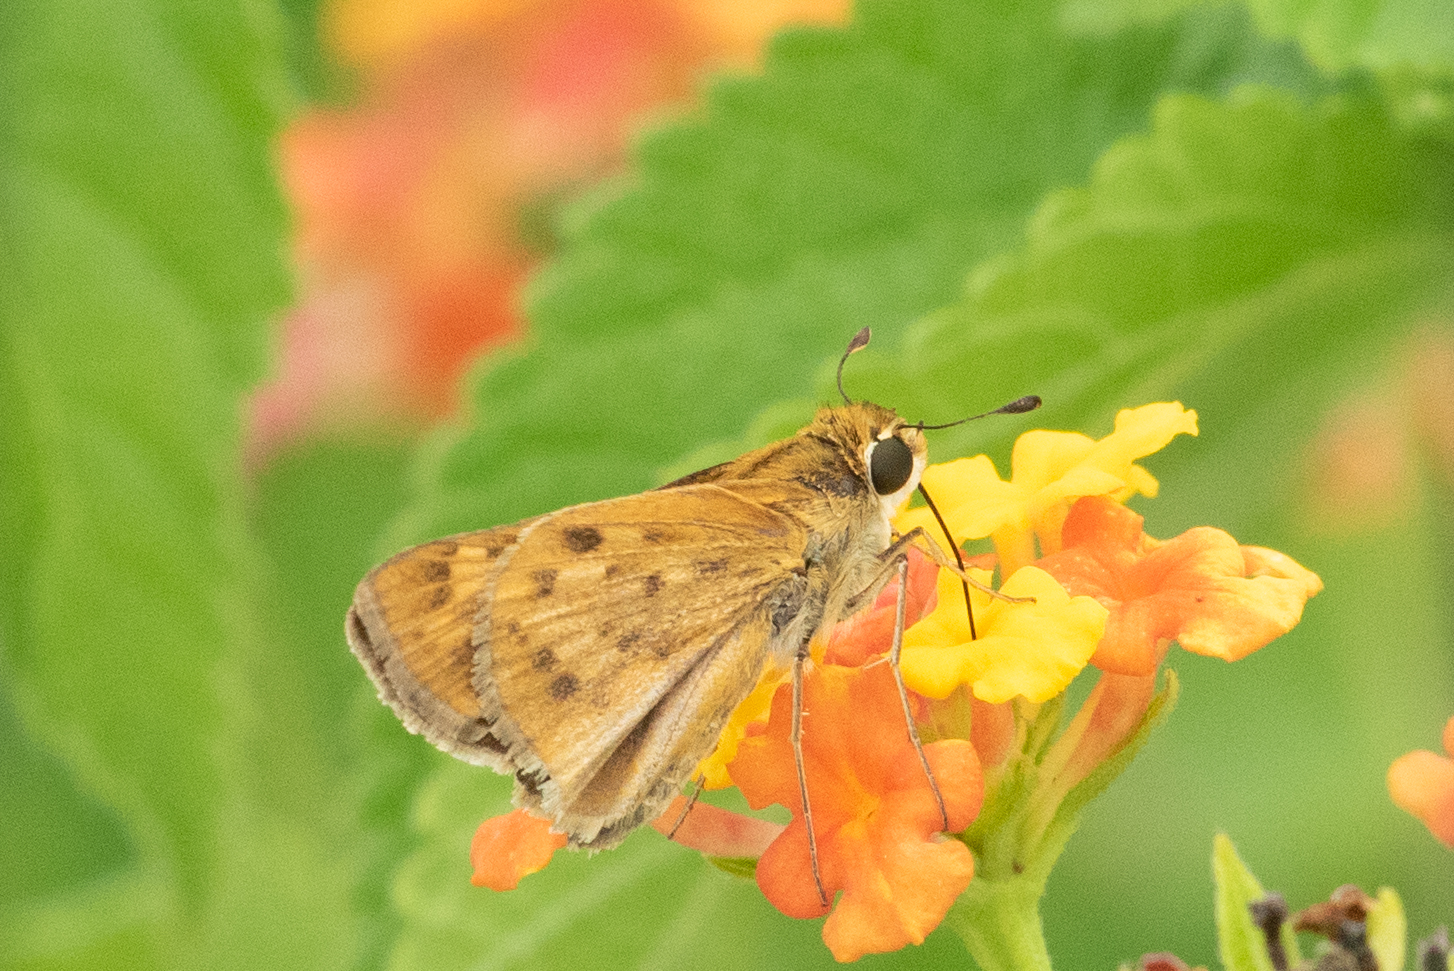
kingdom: Animalia
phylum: Arthropoda
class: Insecta
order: Lepidoptera
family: Hesperiidae
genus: Hylephila
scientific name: Hylephila phyleus
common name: Fiery skipper
